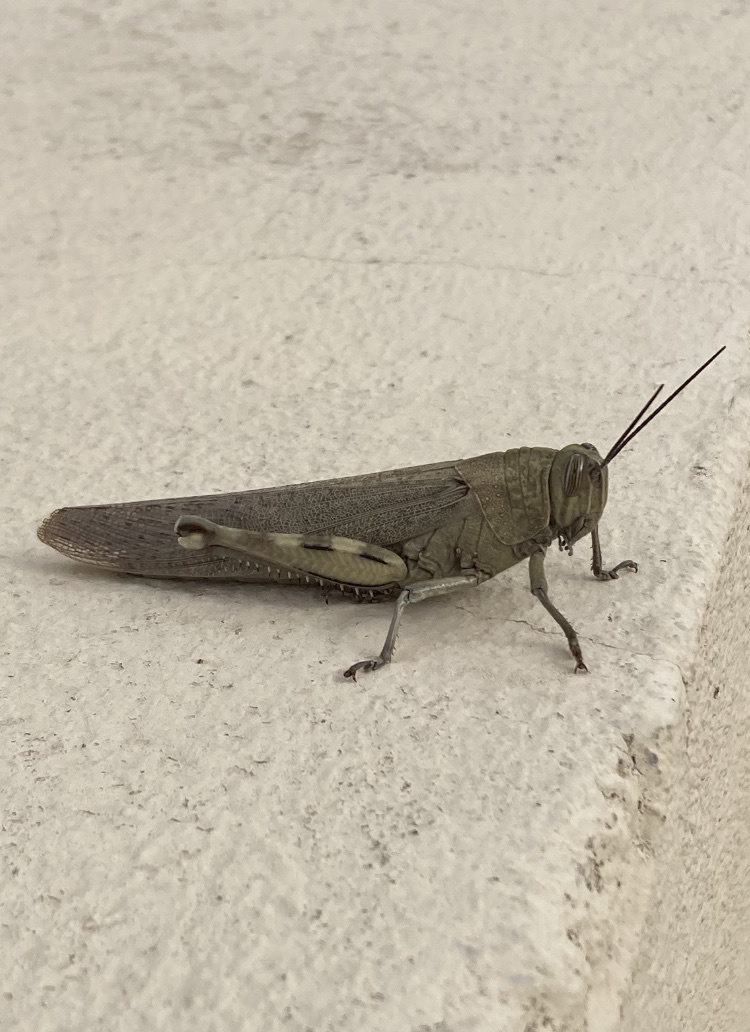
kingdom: Animalia
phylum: Arthropoda
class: Insecta
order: Orthoptera
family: Acrididae
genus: Anacridium
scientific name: Anacridium aegyptium
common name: Egyptian grasshopper
